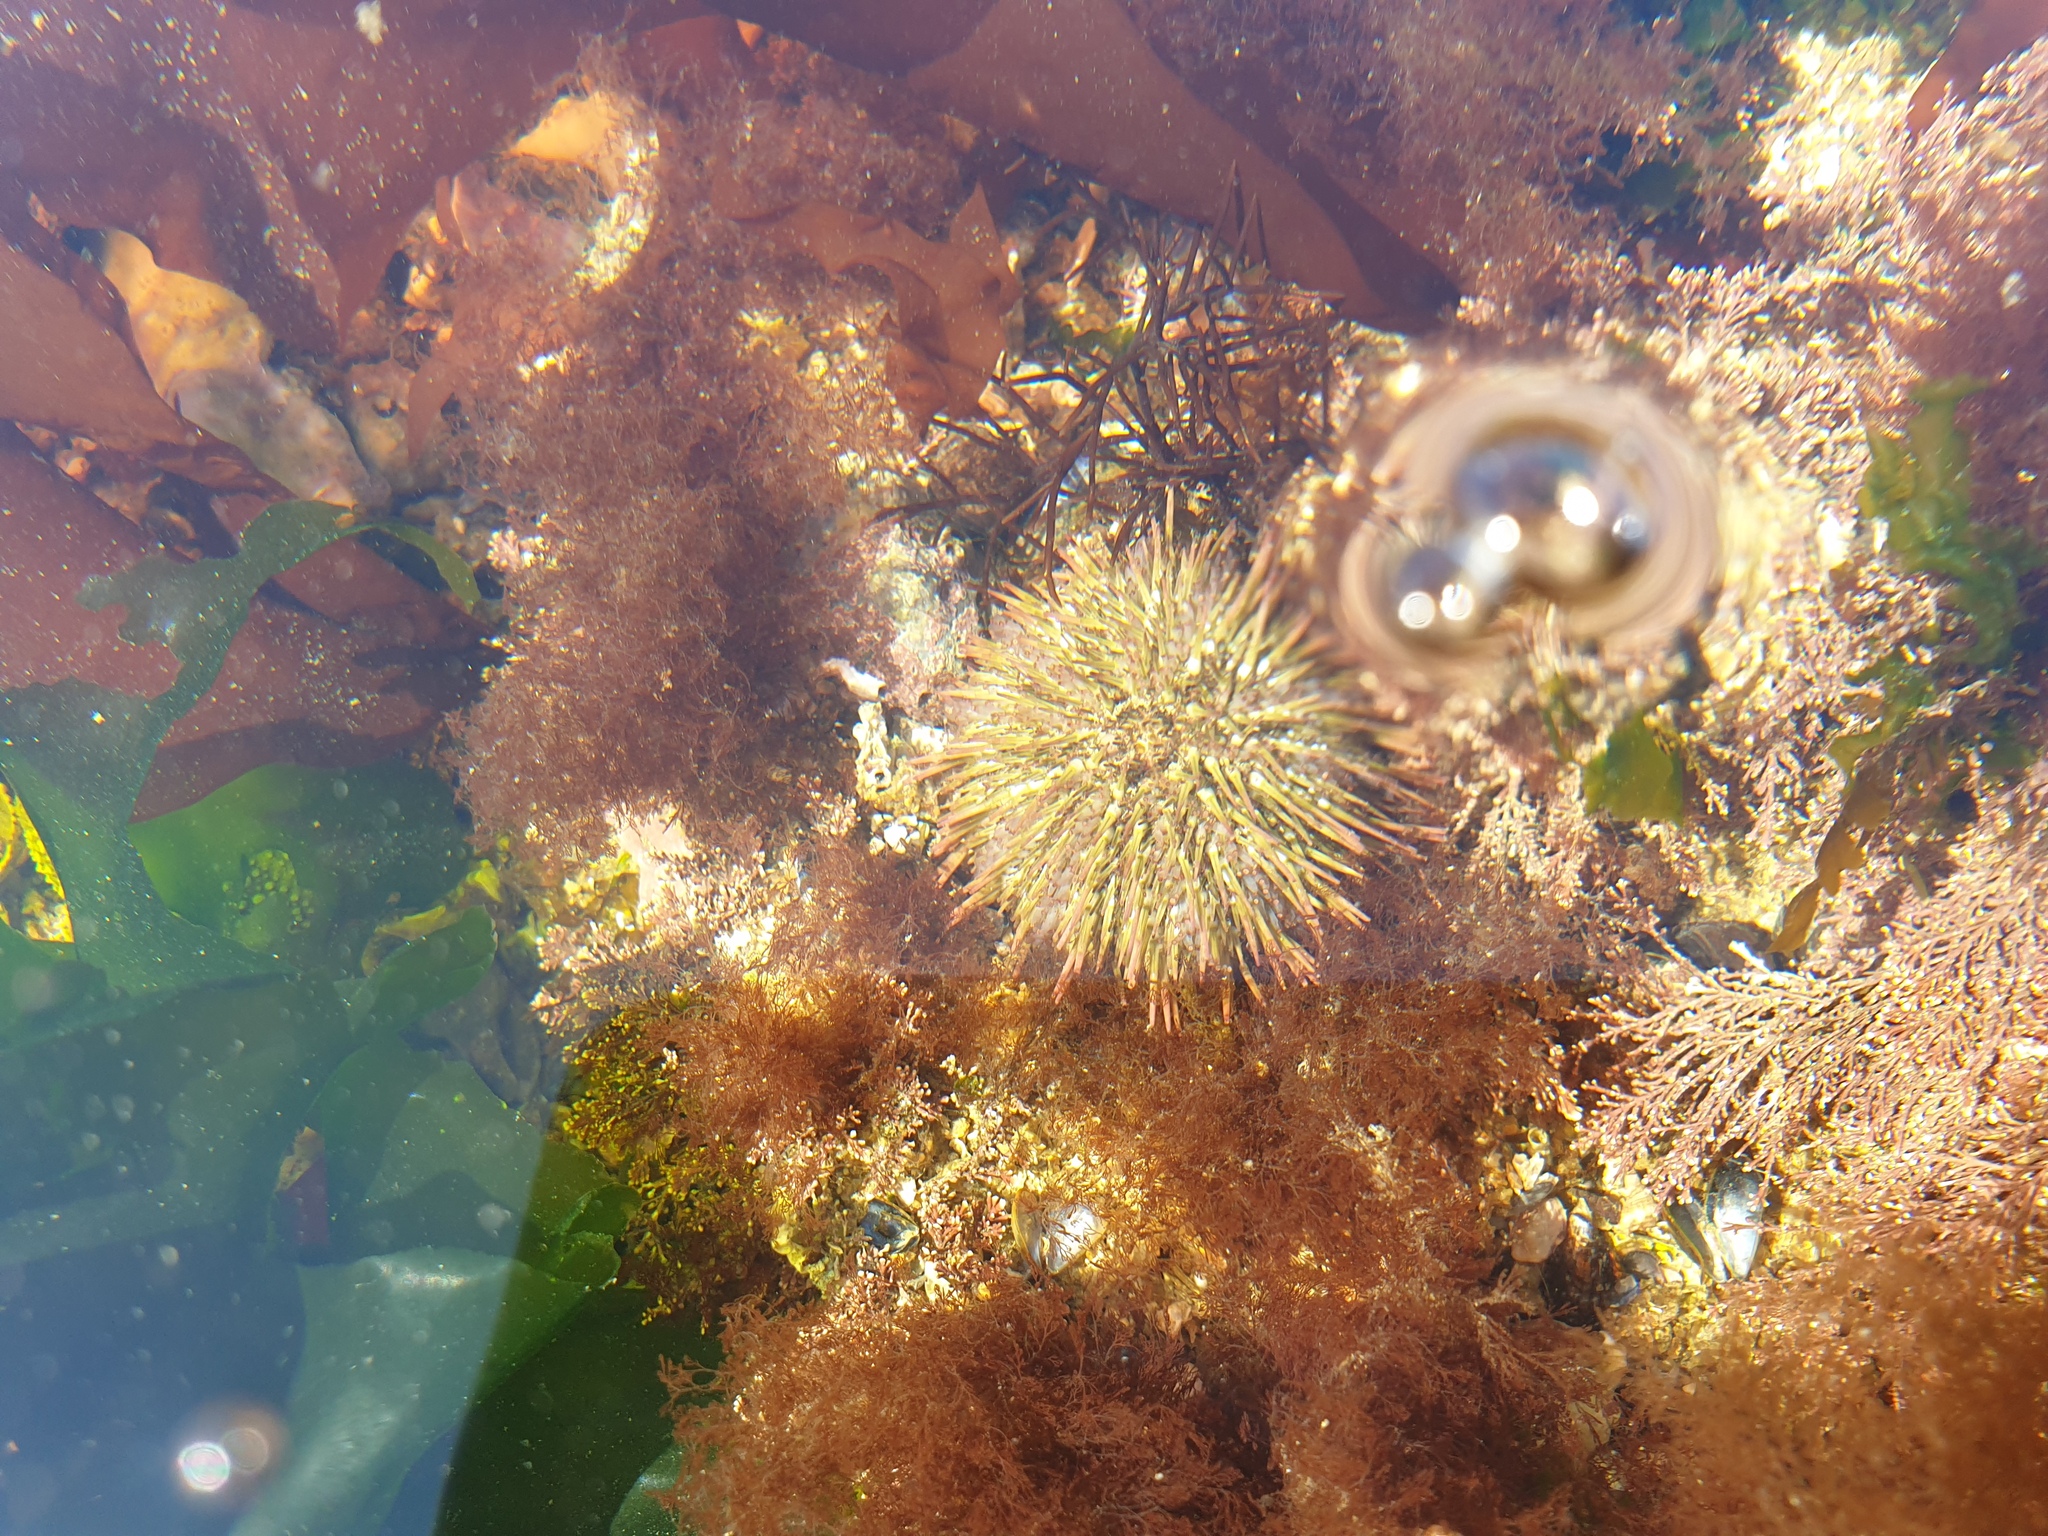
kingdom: Animalia
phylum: Echinodermata
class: Echinoidea
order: Camarodonta
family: Parechinidae
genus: Psammechinus
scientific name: Psammechinus miliaris
